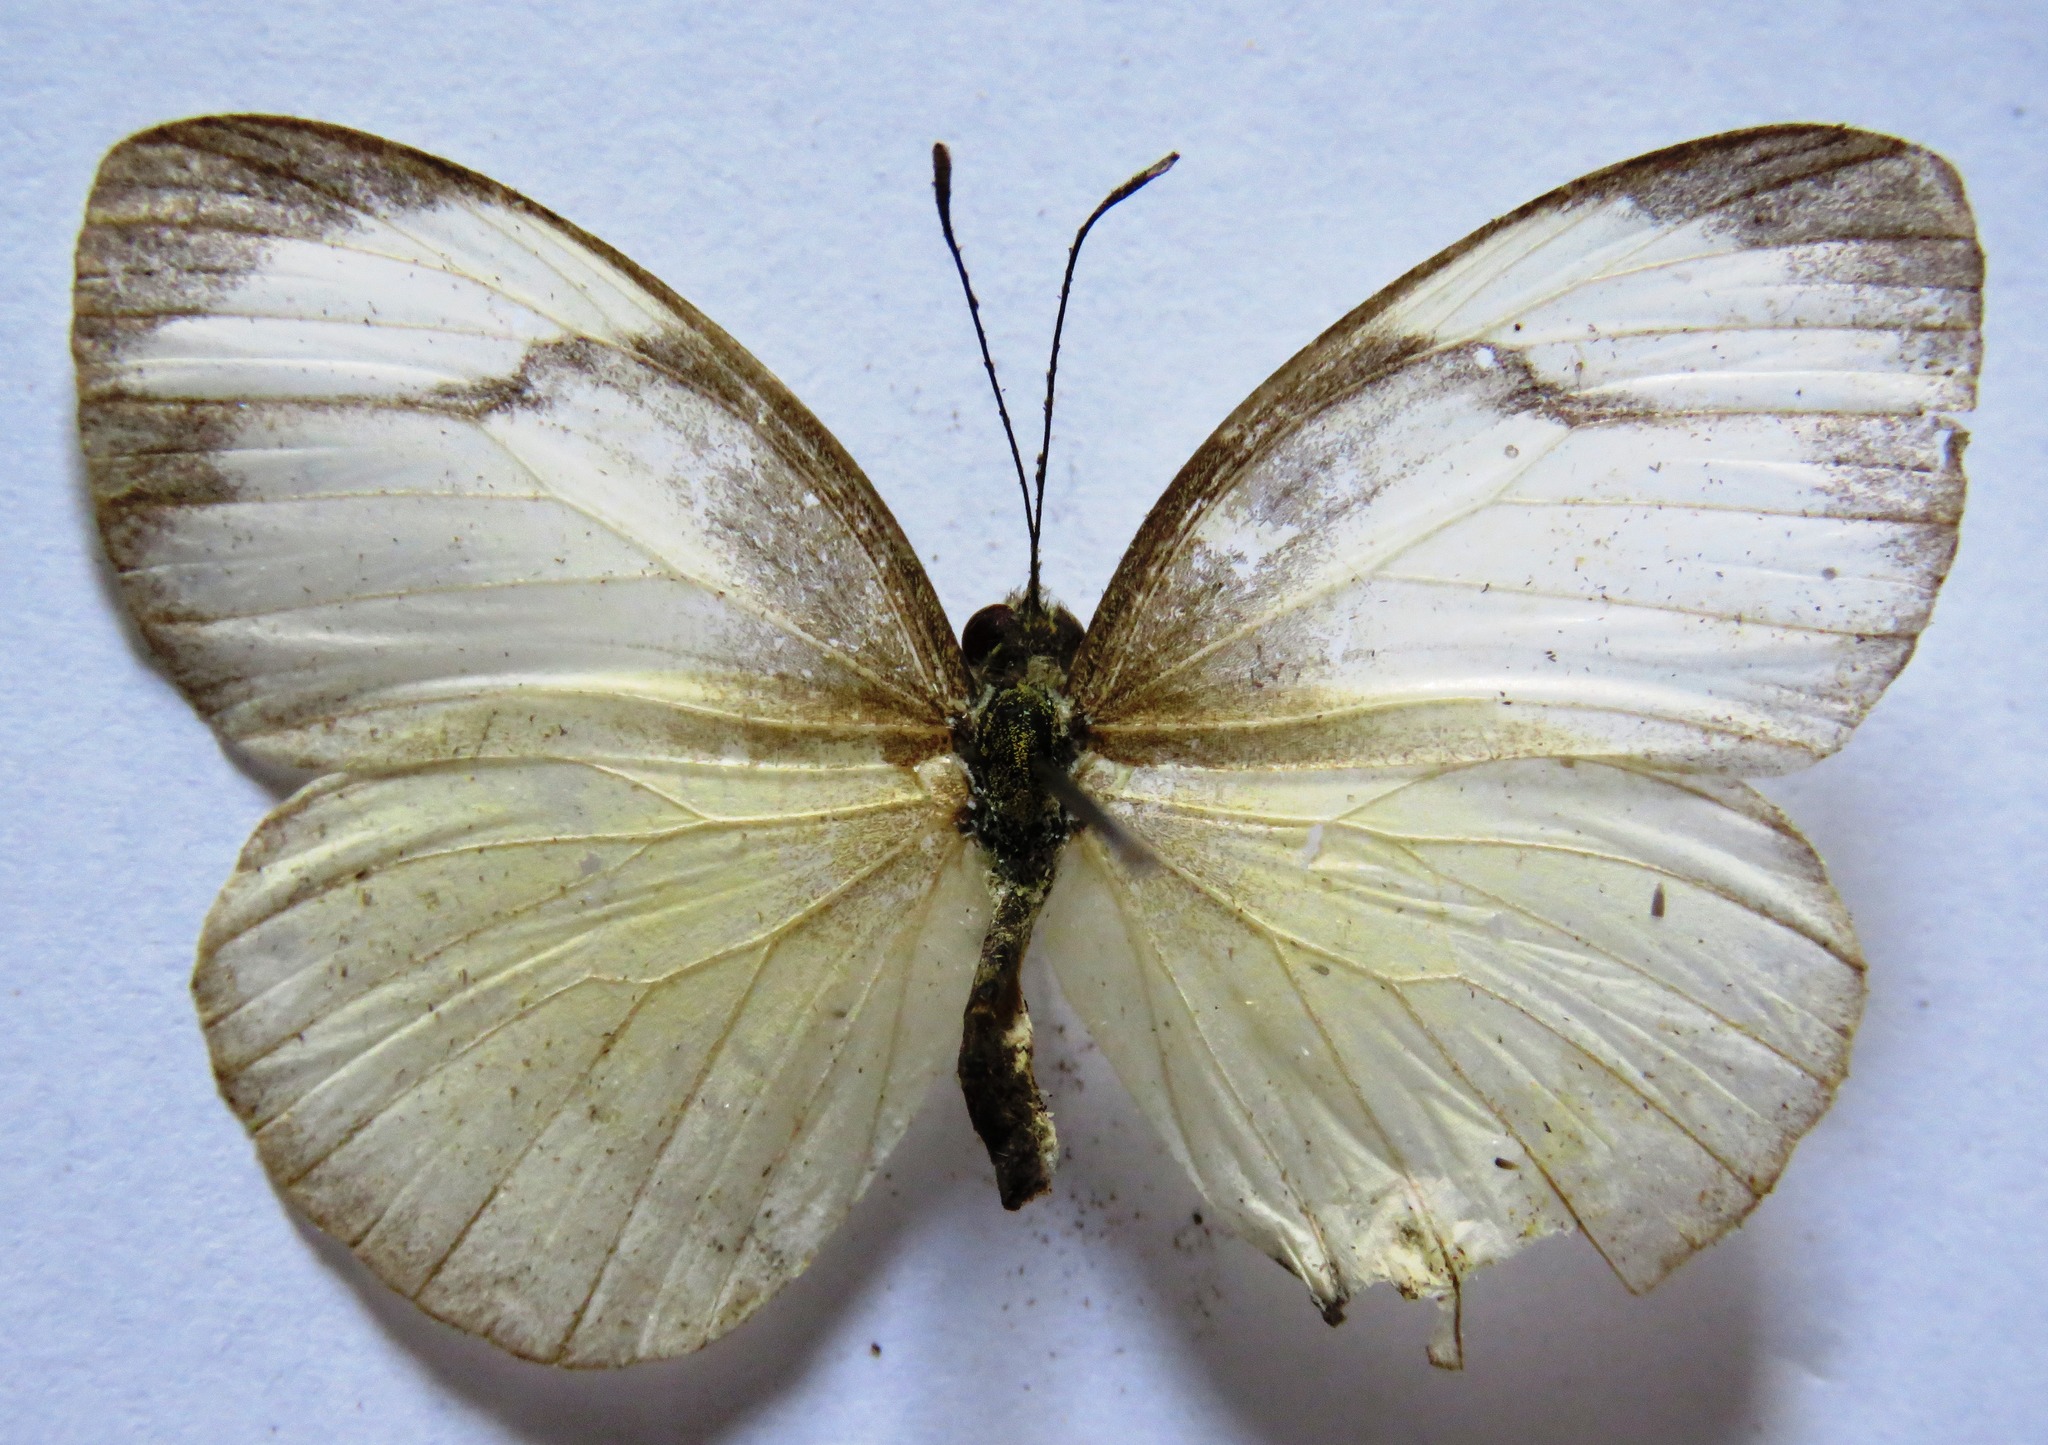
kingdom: Animalia
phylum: Arthropoda
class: Insecta
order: Lepidoptera
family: Pieridae
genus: Itaballia
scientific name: Itaballia demophile
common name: Cross-barred white
